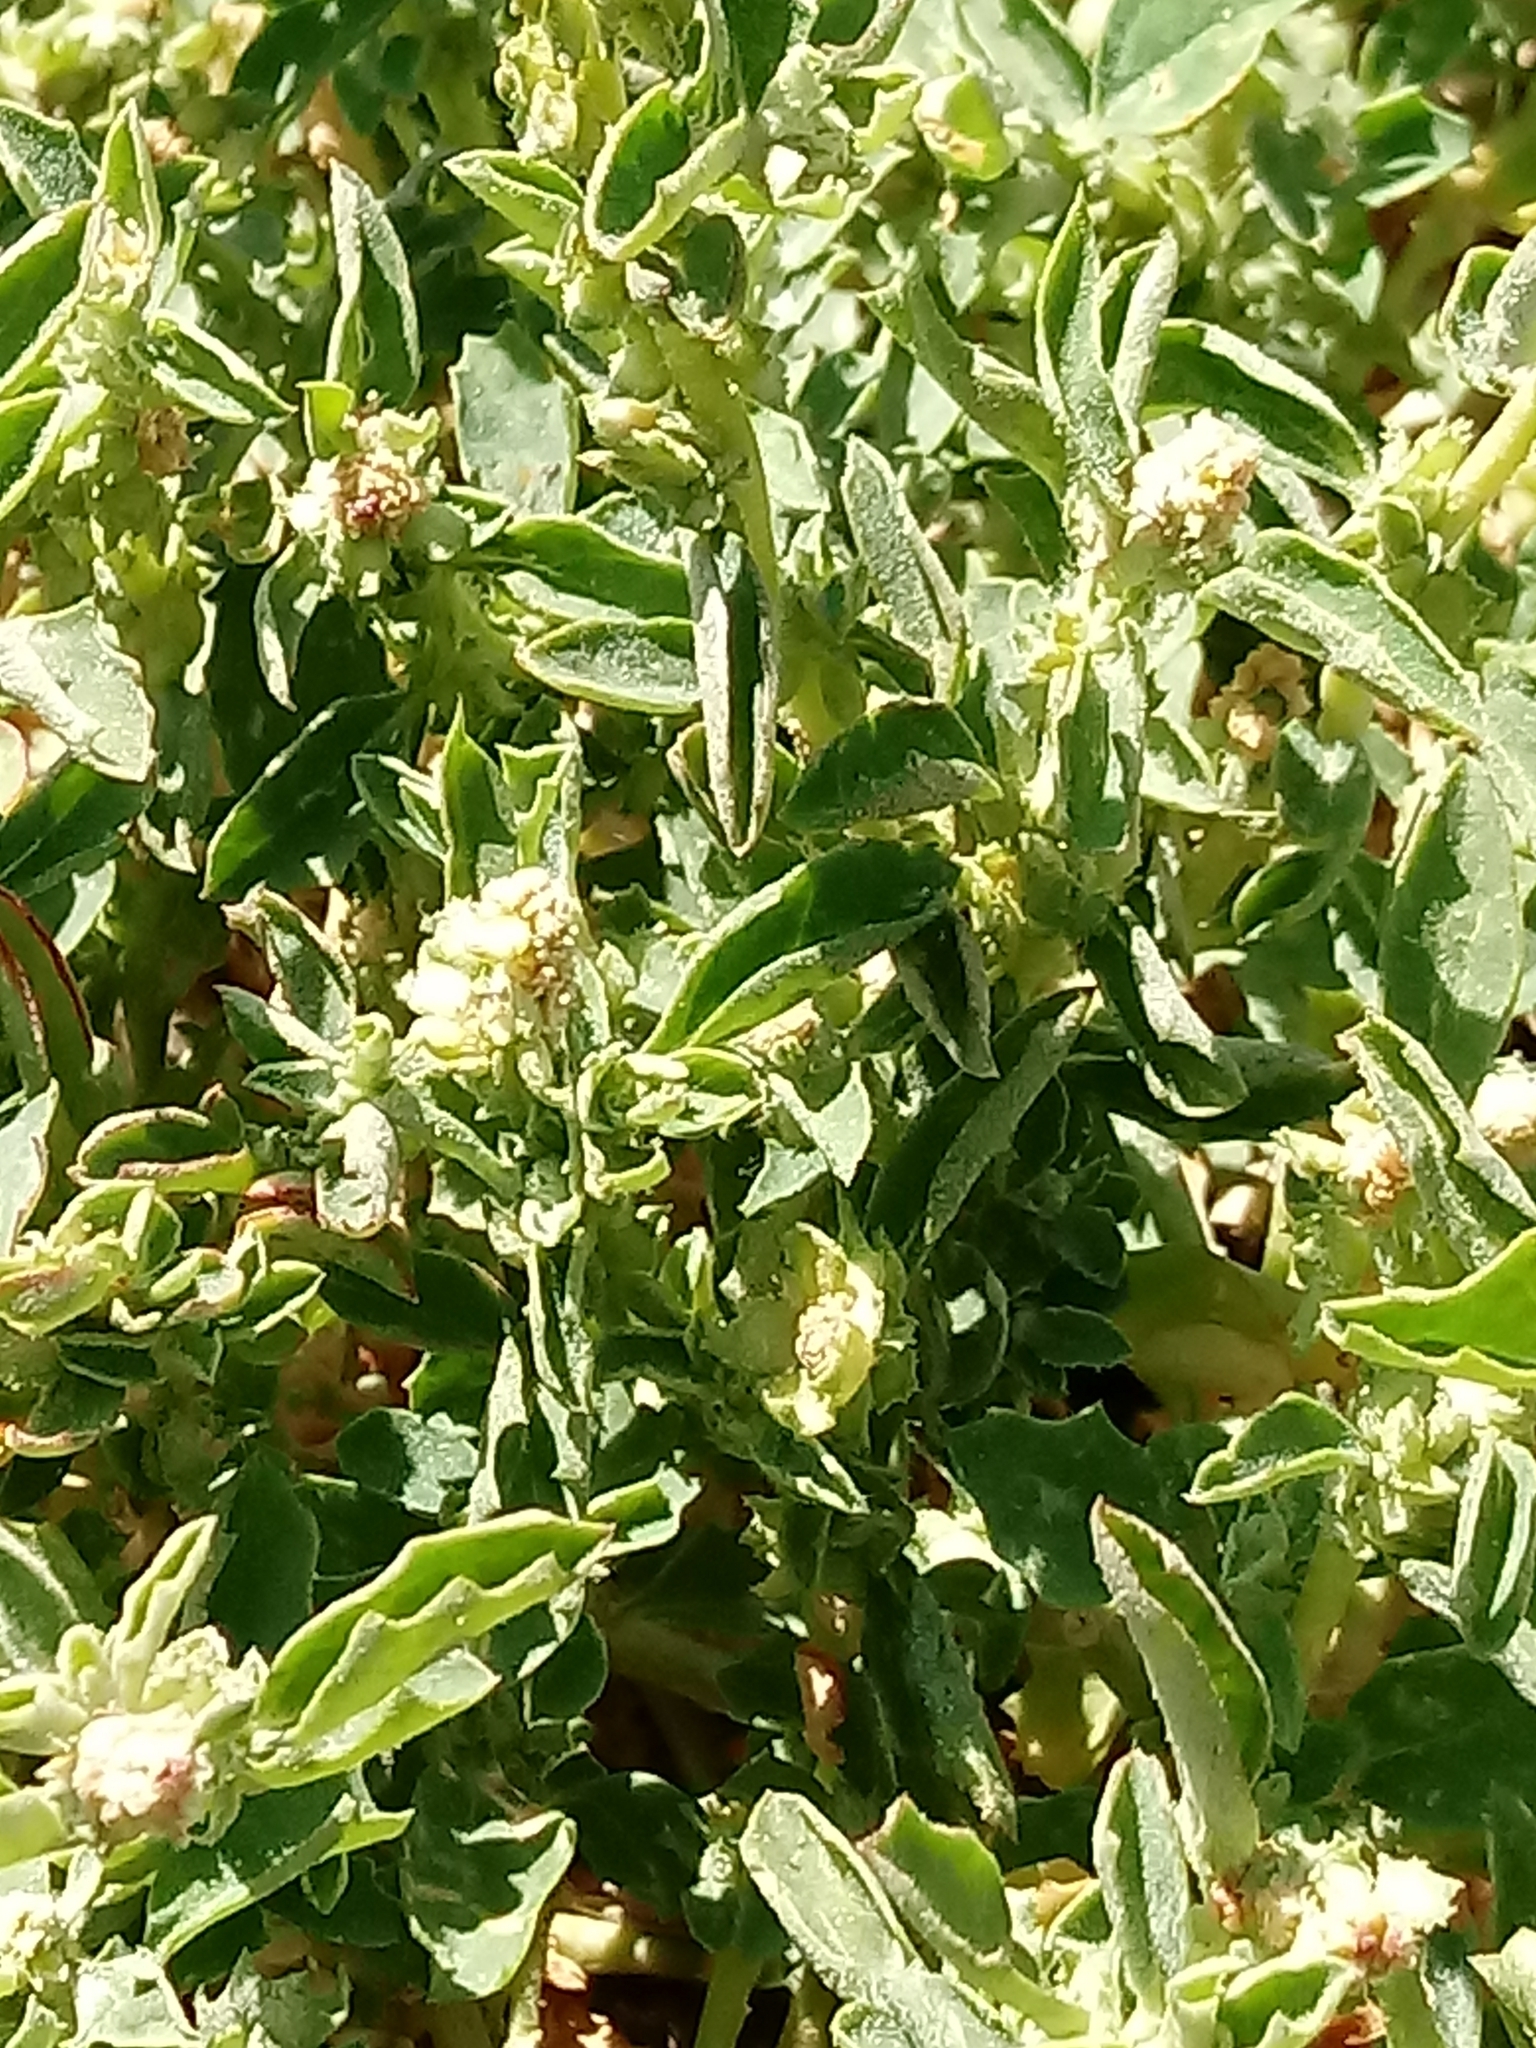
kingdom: Plantae
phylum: Tracheophyta
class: Magnoliopsida
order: Caryophyllales
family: Amaranthaceae
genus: Atriplex
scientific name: Atriplex semibaccata
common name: Australian saltbush
